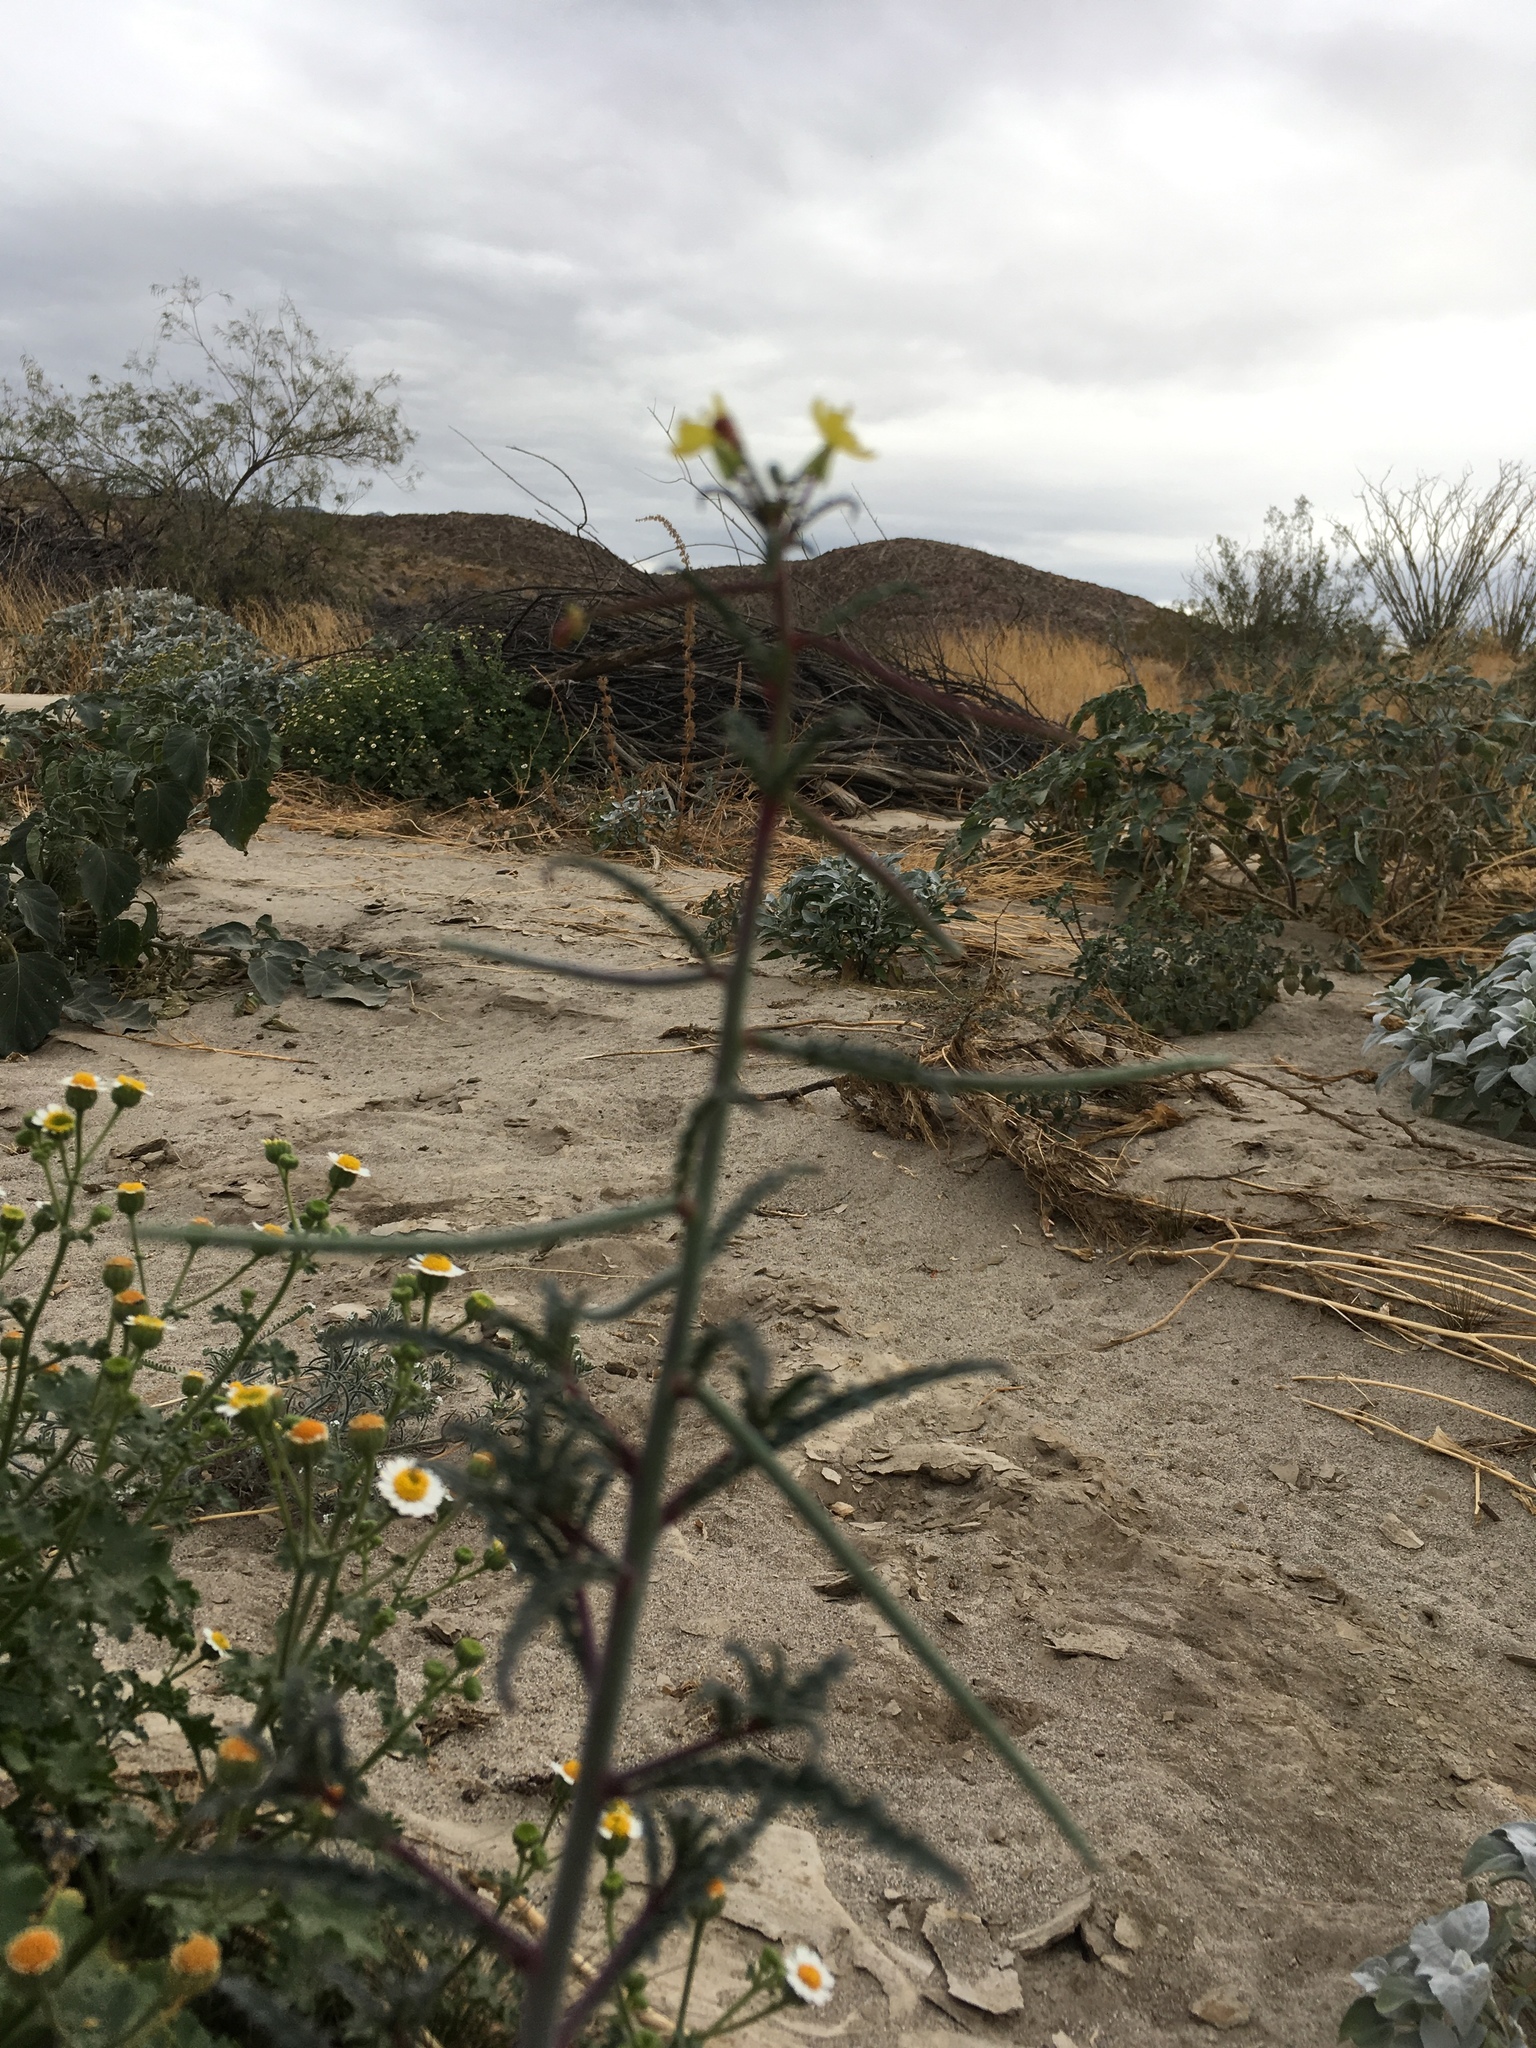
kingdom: Plantae
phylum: Tracheophyta
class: Magnoliopsida
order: Myrtales
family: Onagraceae
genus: Eulobus
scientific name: Eulobus californicus
